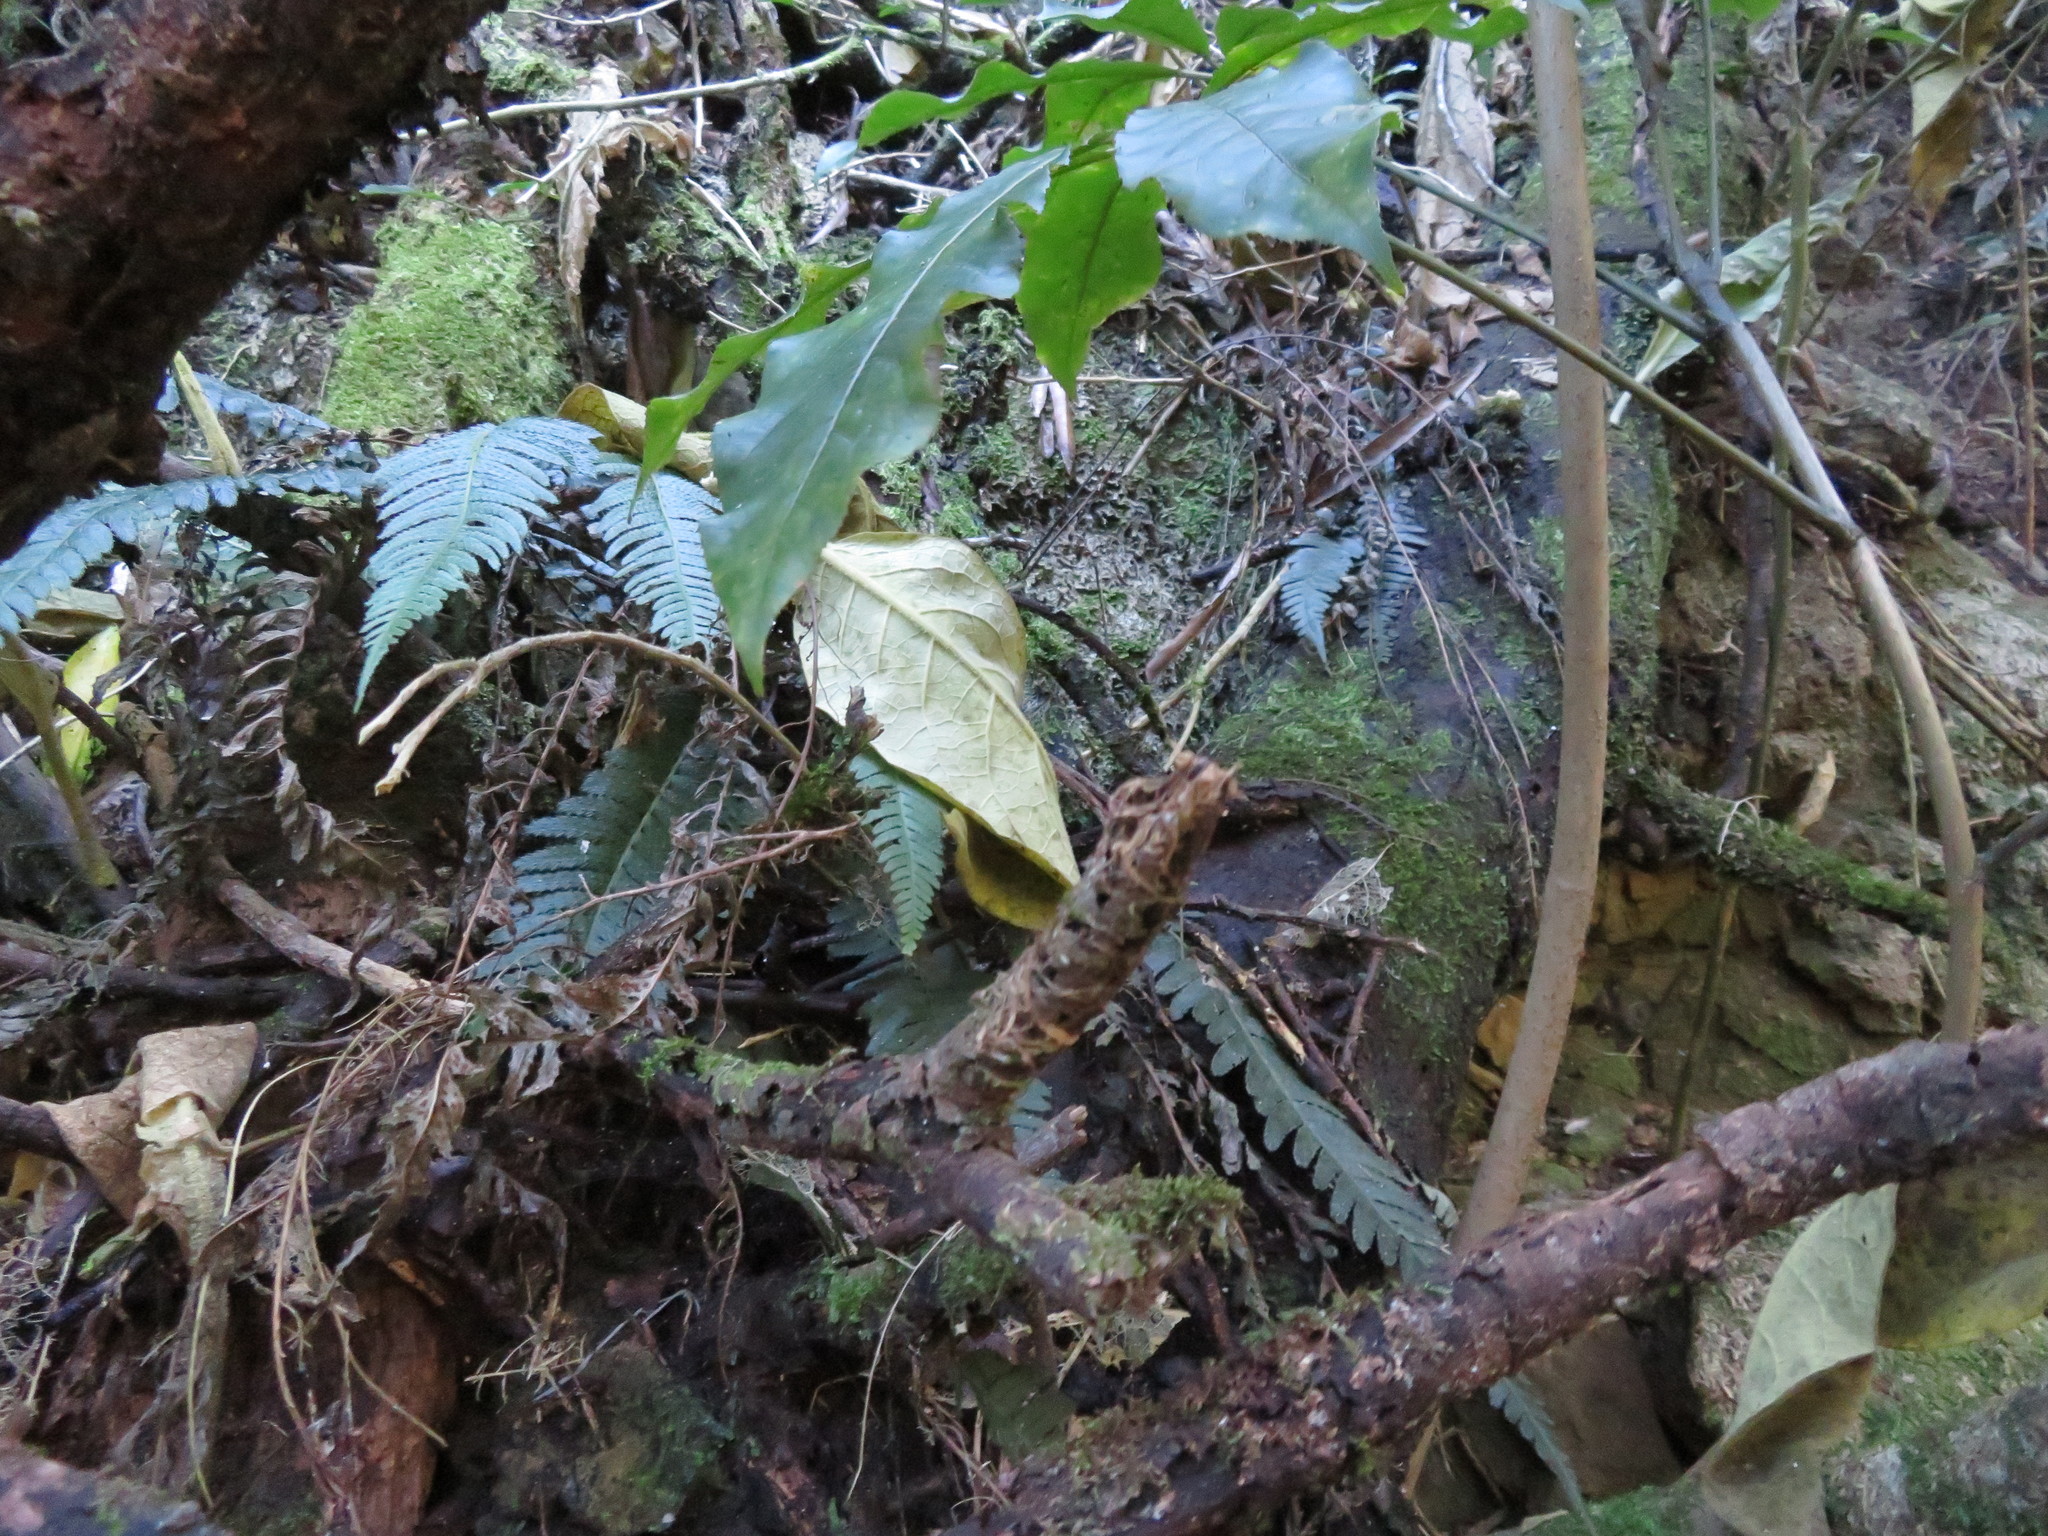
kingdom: Plantae
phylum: Tracheophyta
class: Polypodiopsida
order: Polypodiales
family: Blechnaceae
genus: Doodia
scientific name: Doodia australis
